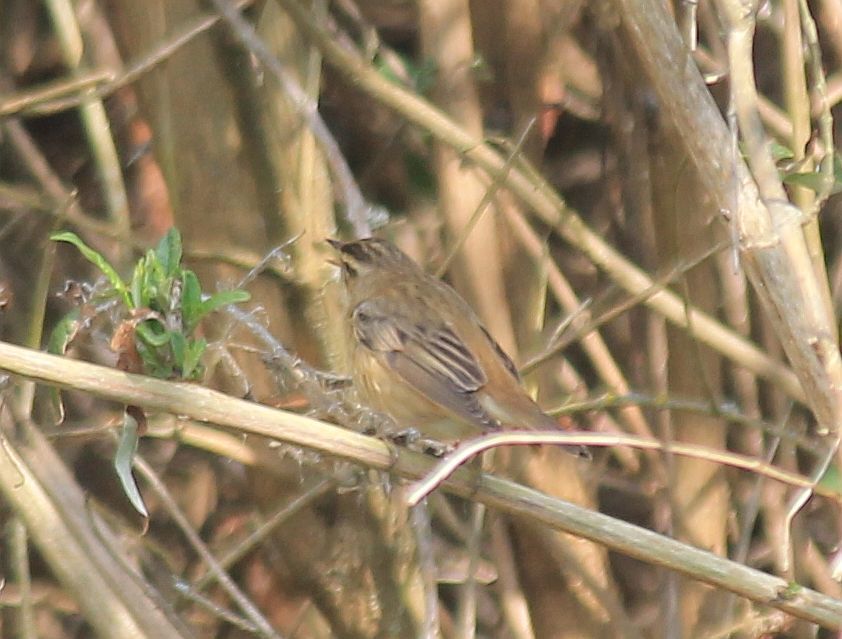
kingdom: Animalia
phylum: Chordata
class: Aves
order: Passeriformes
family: Acrocephalidae
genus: Acrocephalus
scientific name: Acrocephalus schoenobaenus
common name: Sedge warbler
